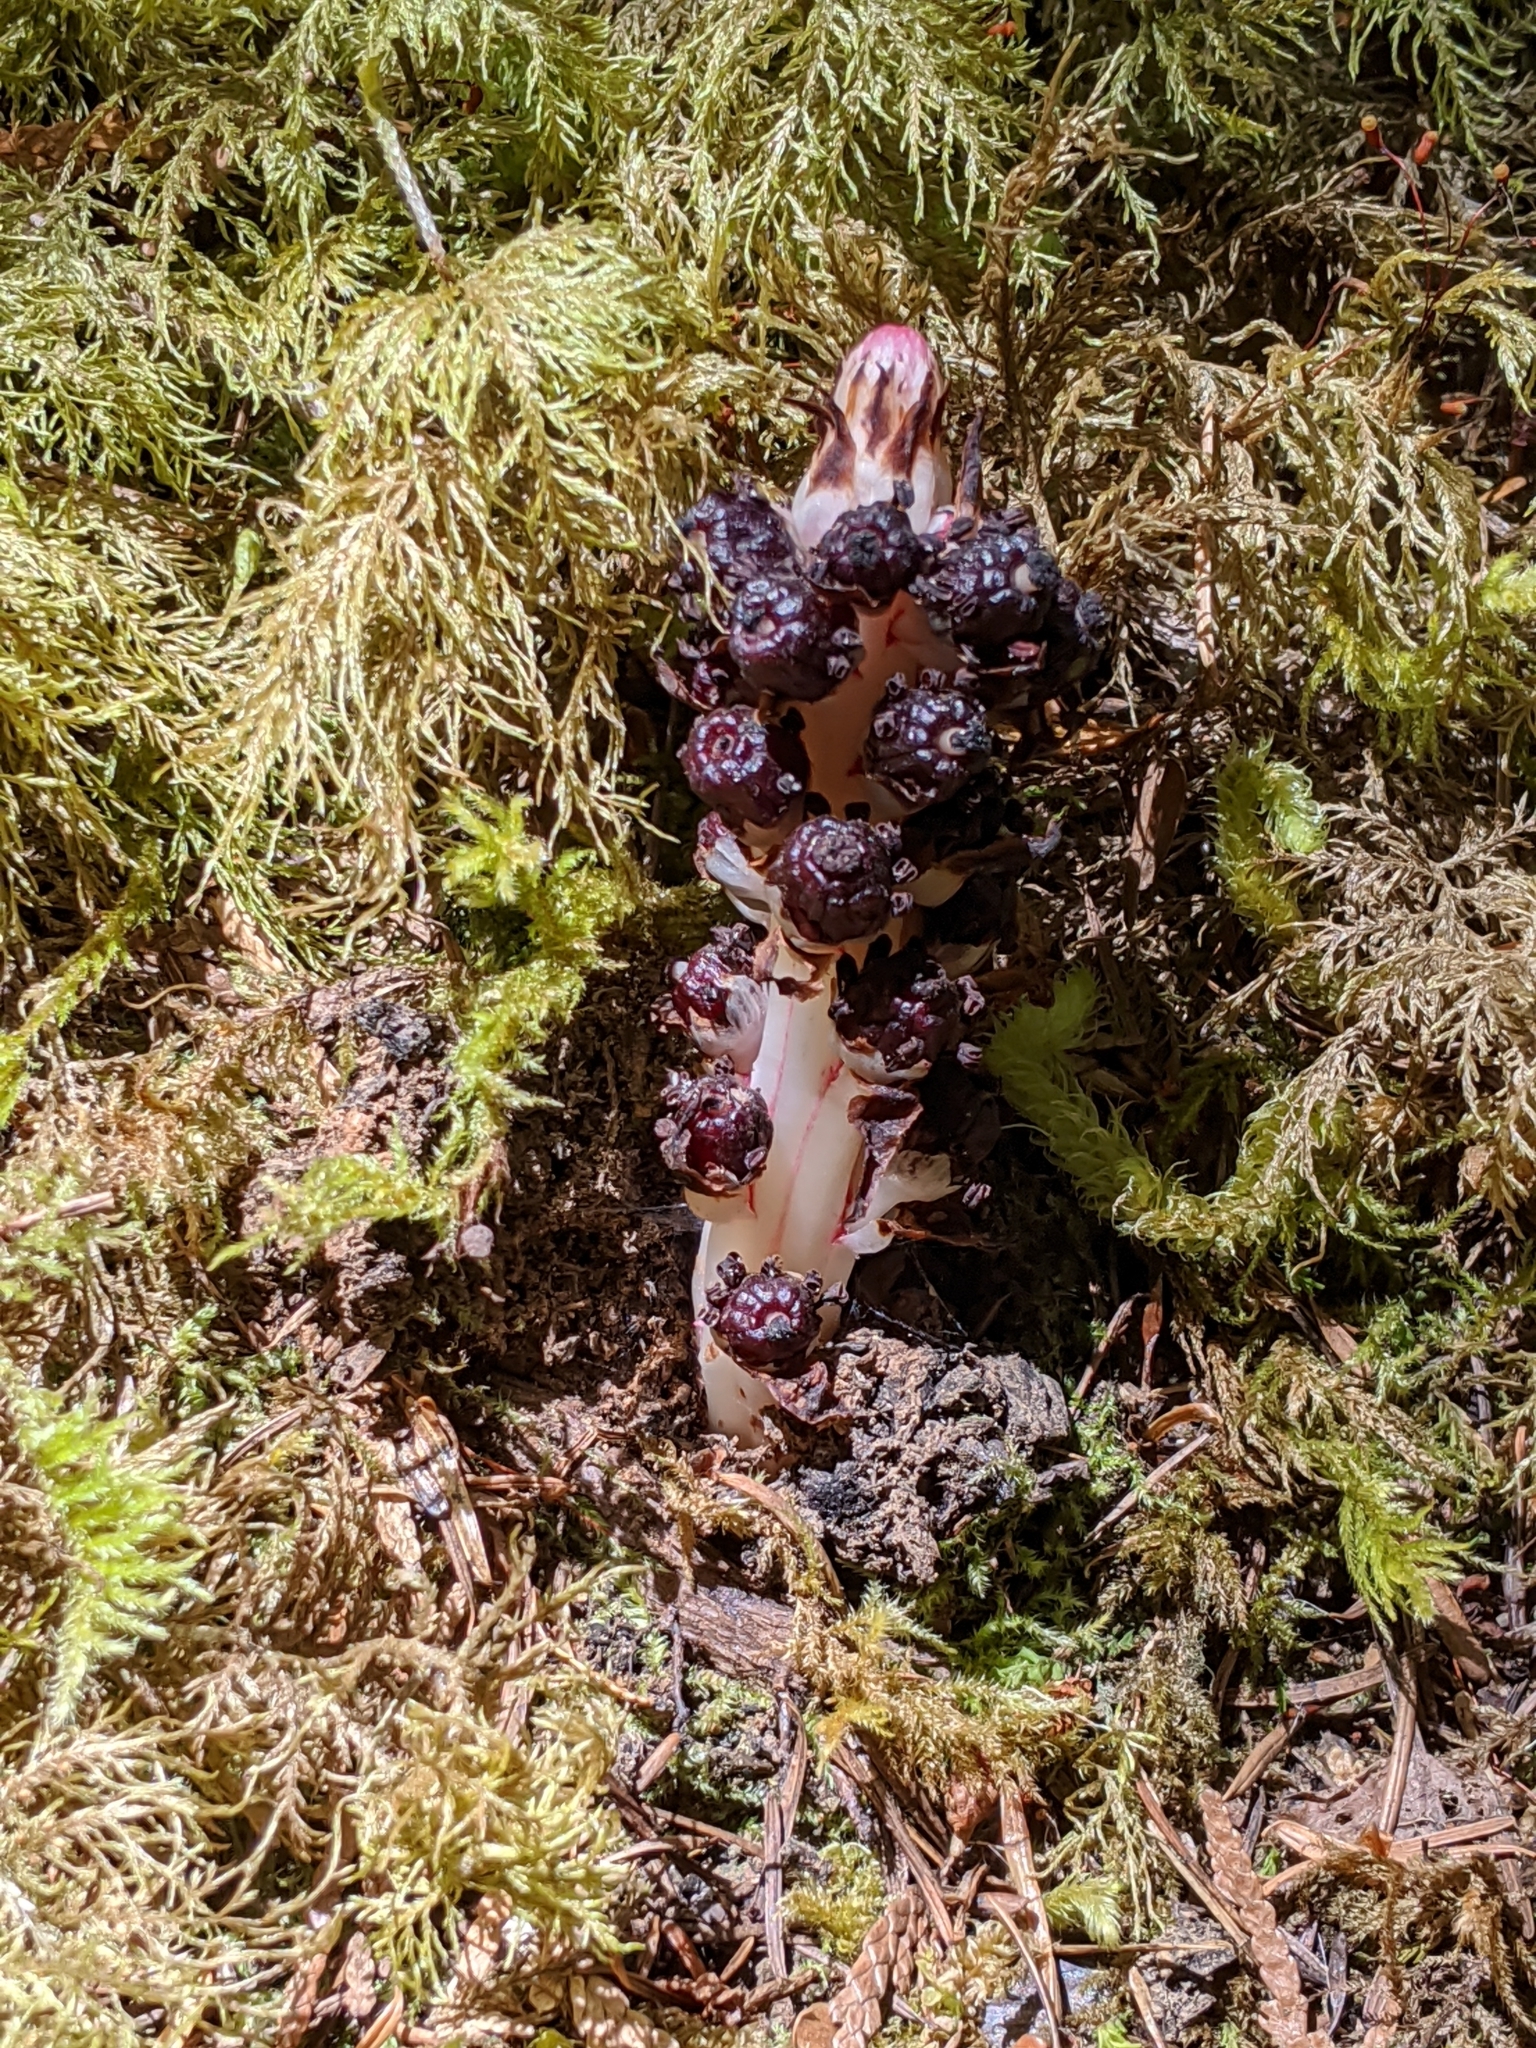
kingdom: Plantae
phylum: Tracheophyta
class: Magnoliopsida
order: Ericales
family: Ericaceae
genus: Allotropa
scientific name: Allotropa virgata
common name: Candy-striped allotropa
